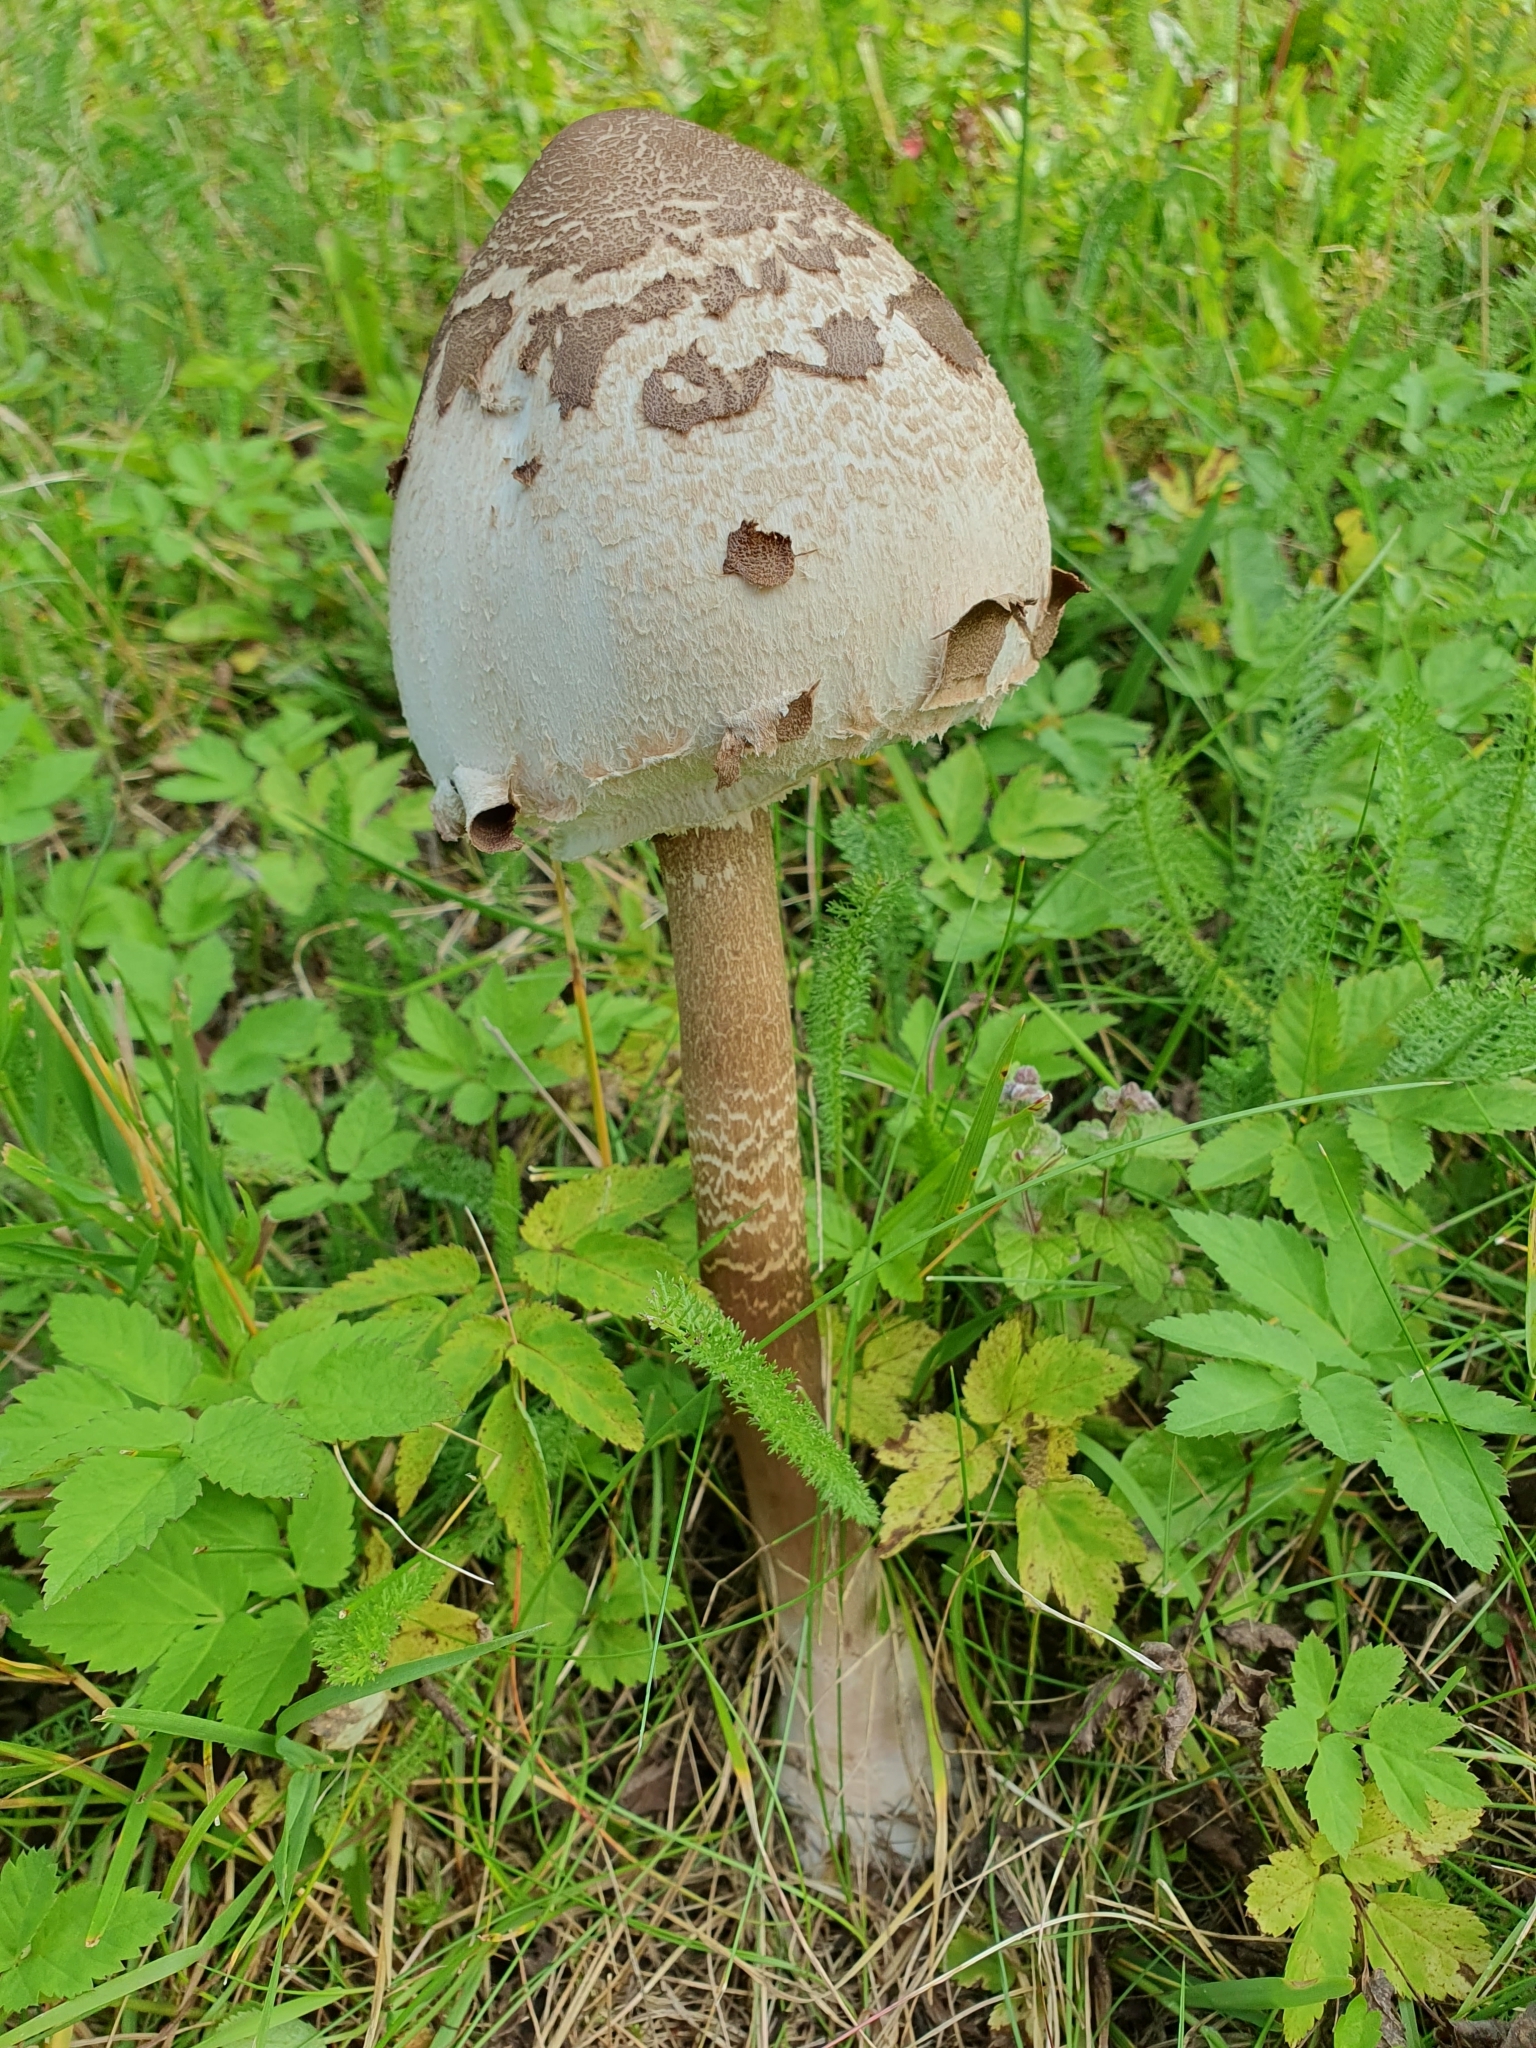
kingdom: Fungi
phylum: Basidiomycota
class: Agaricomycetes
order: Agaricales
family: Agaricaceae
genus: Macrolepiota
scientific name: Macrolepiota procera
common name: Parasol
